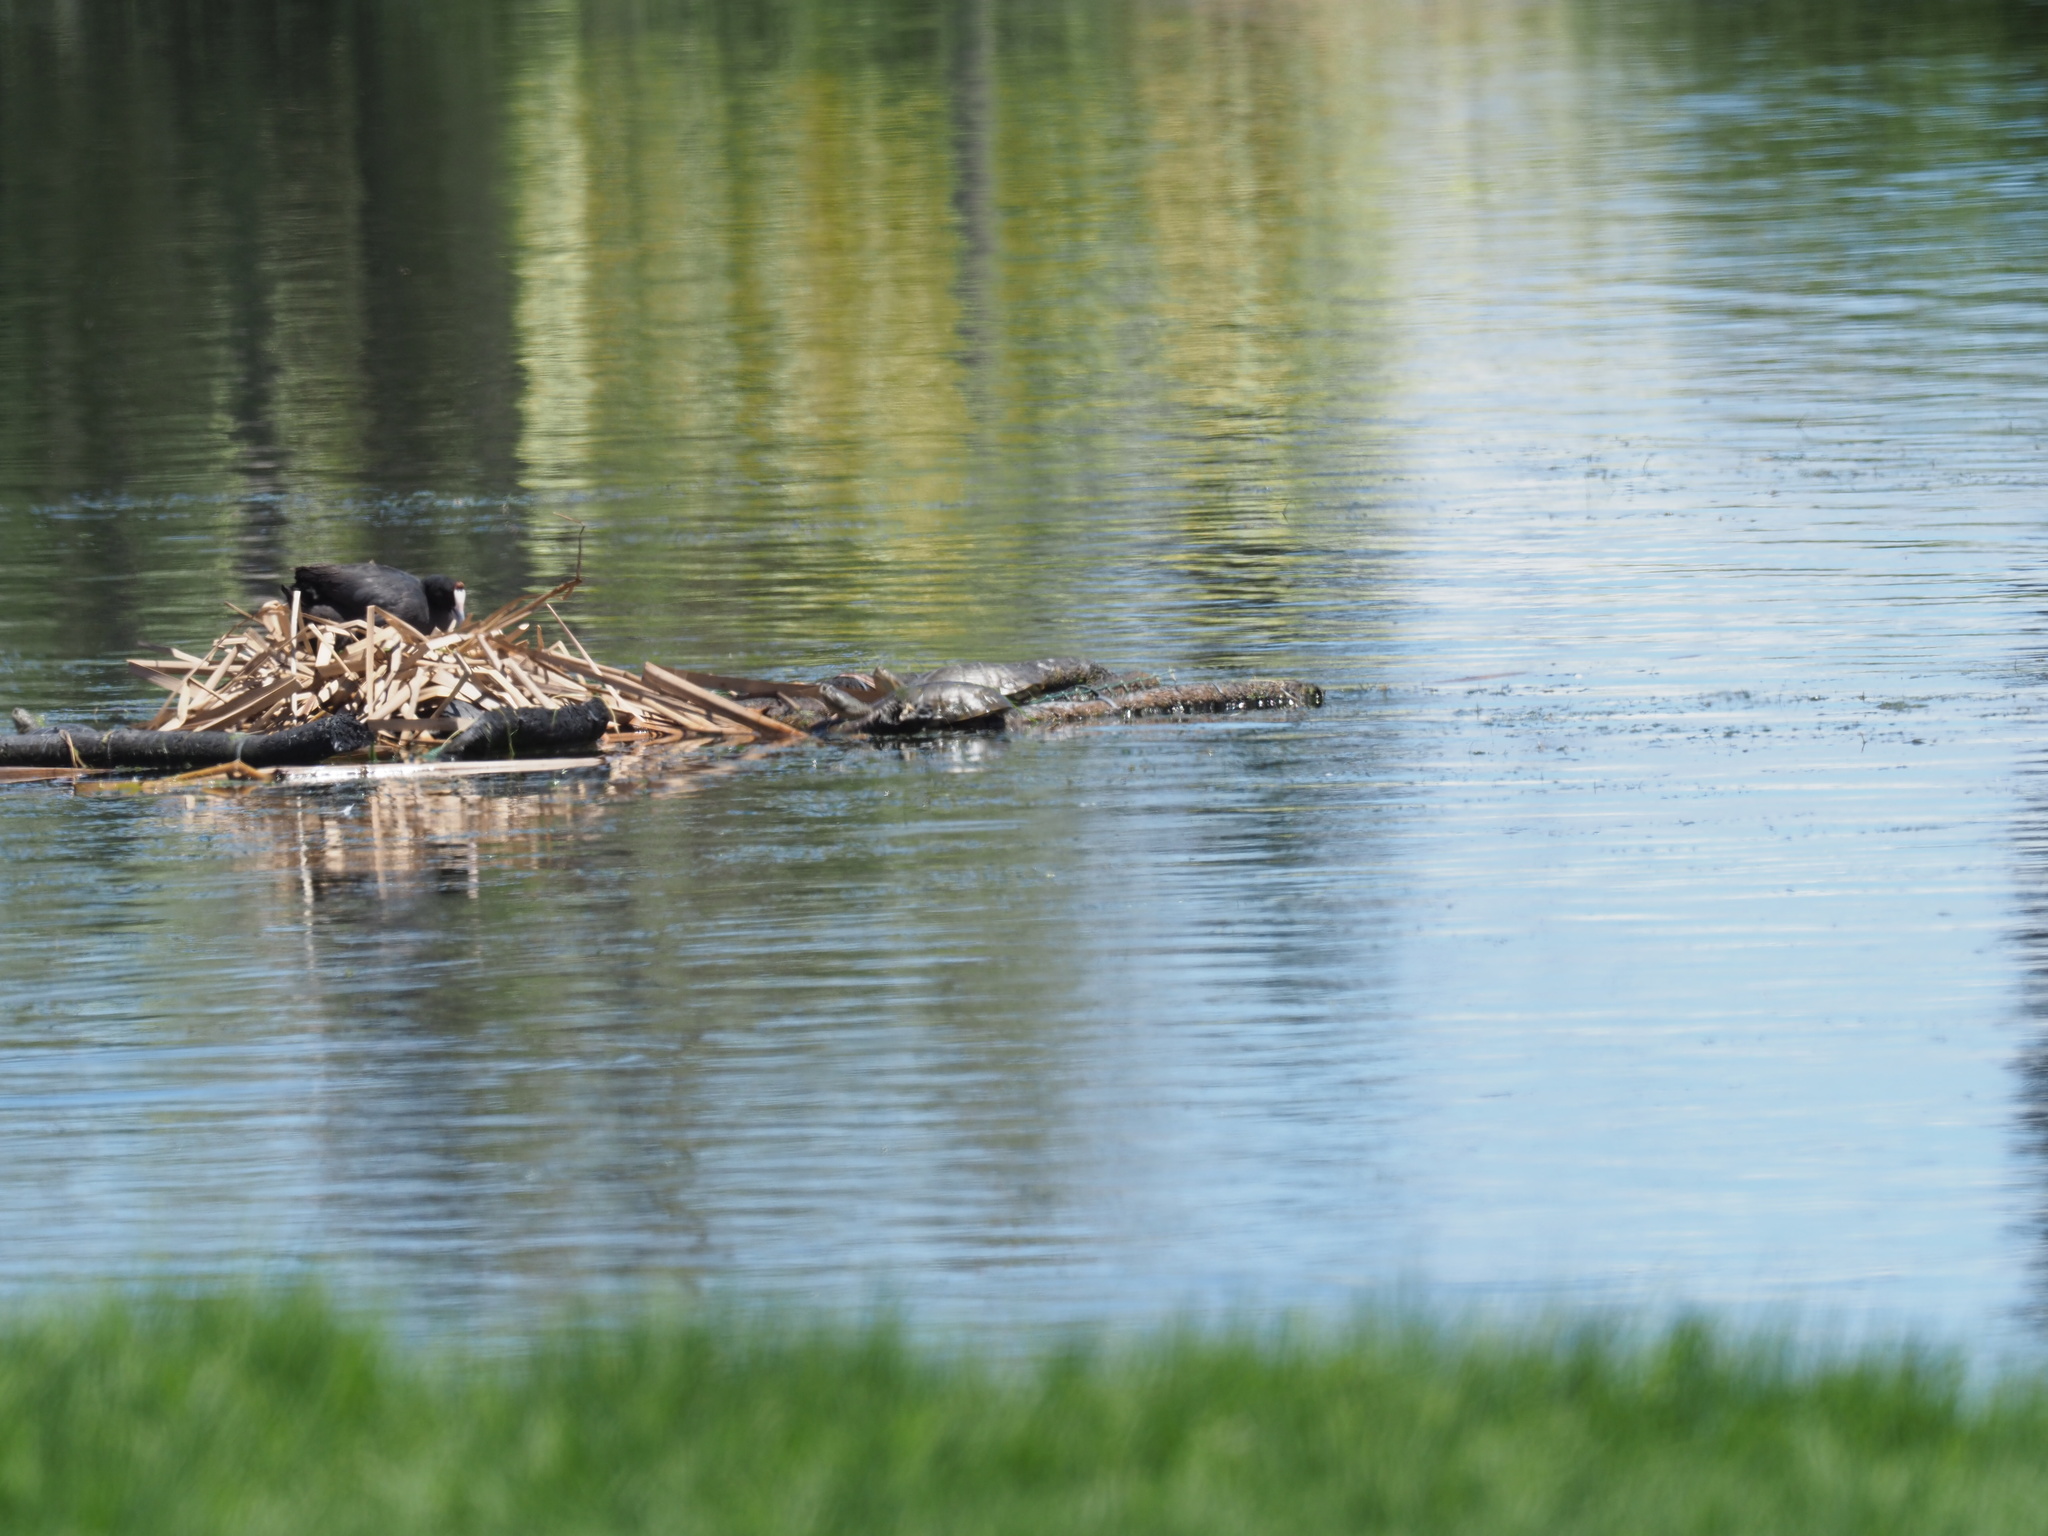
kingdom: Animalia
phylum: Chordata
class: Aves
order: Gruiformes
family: Rallidae
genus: Fulica
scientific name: Fulica cristata
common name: Red-knobbed coot
